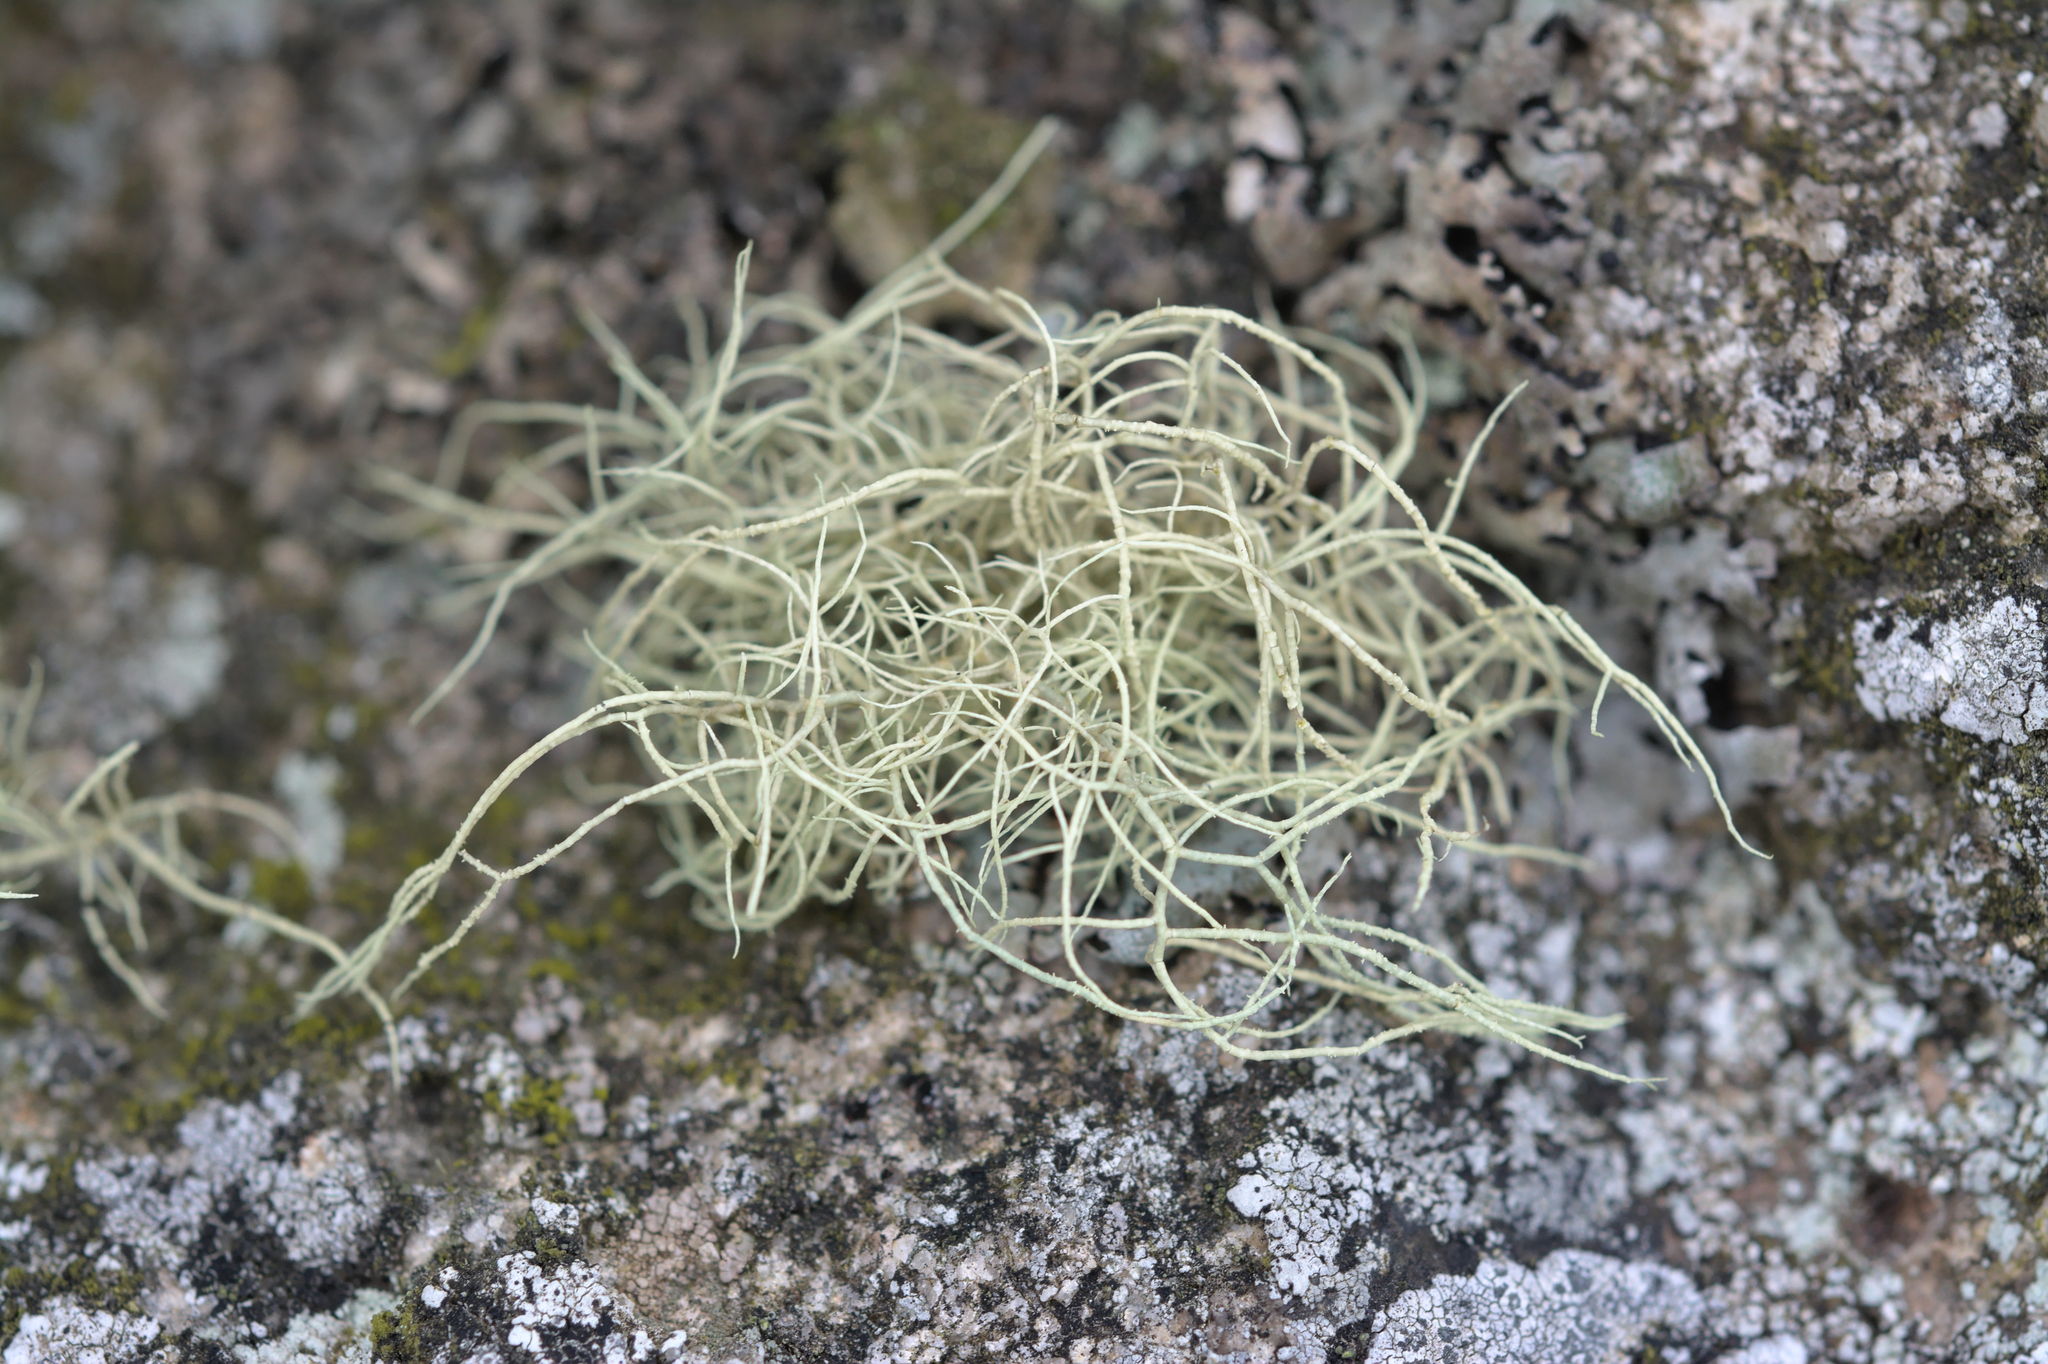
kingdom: Fungi
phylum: Ascomycota
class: Lecanoromycetes
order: Lecanorales
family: Parmeliaceae
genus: Usnea
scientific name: Usnea
